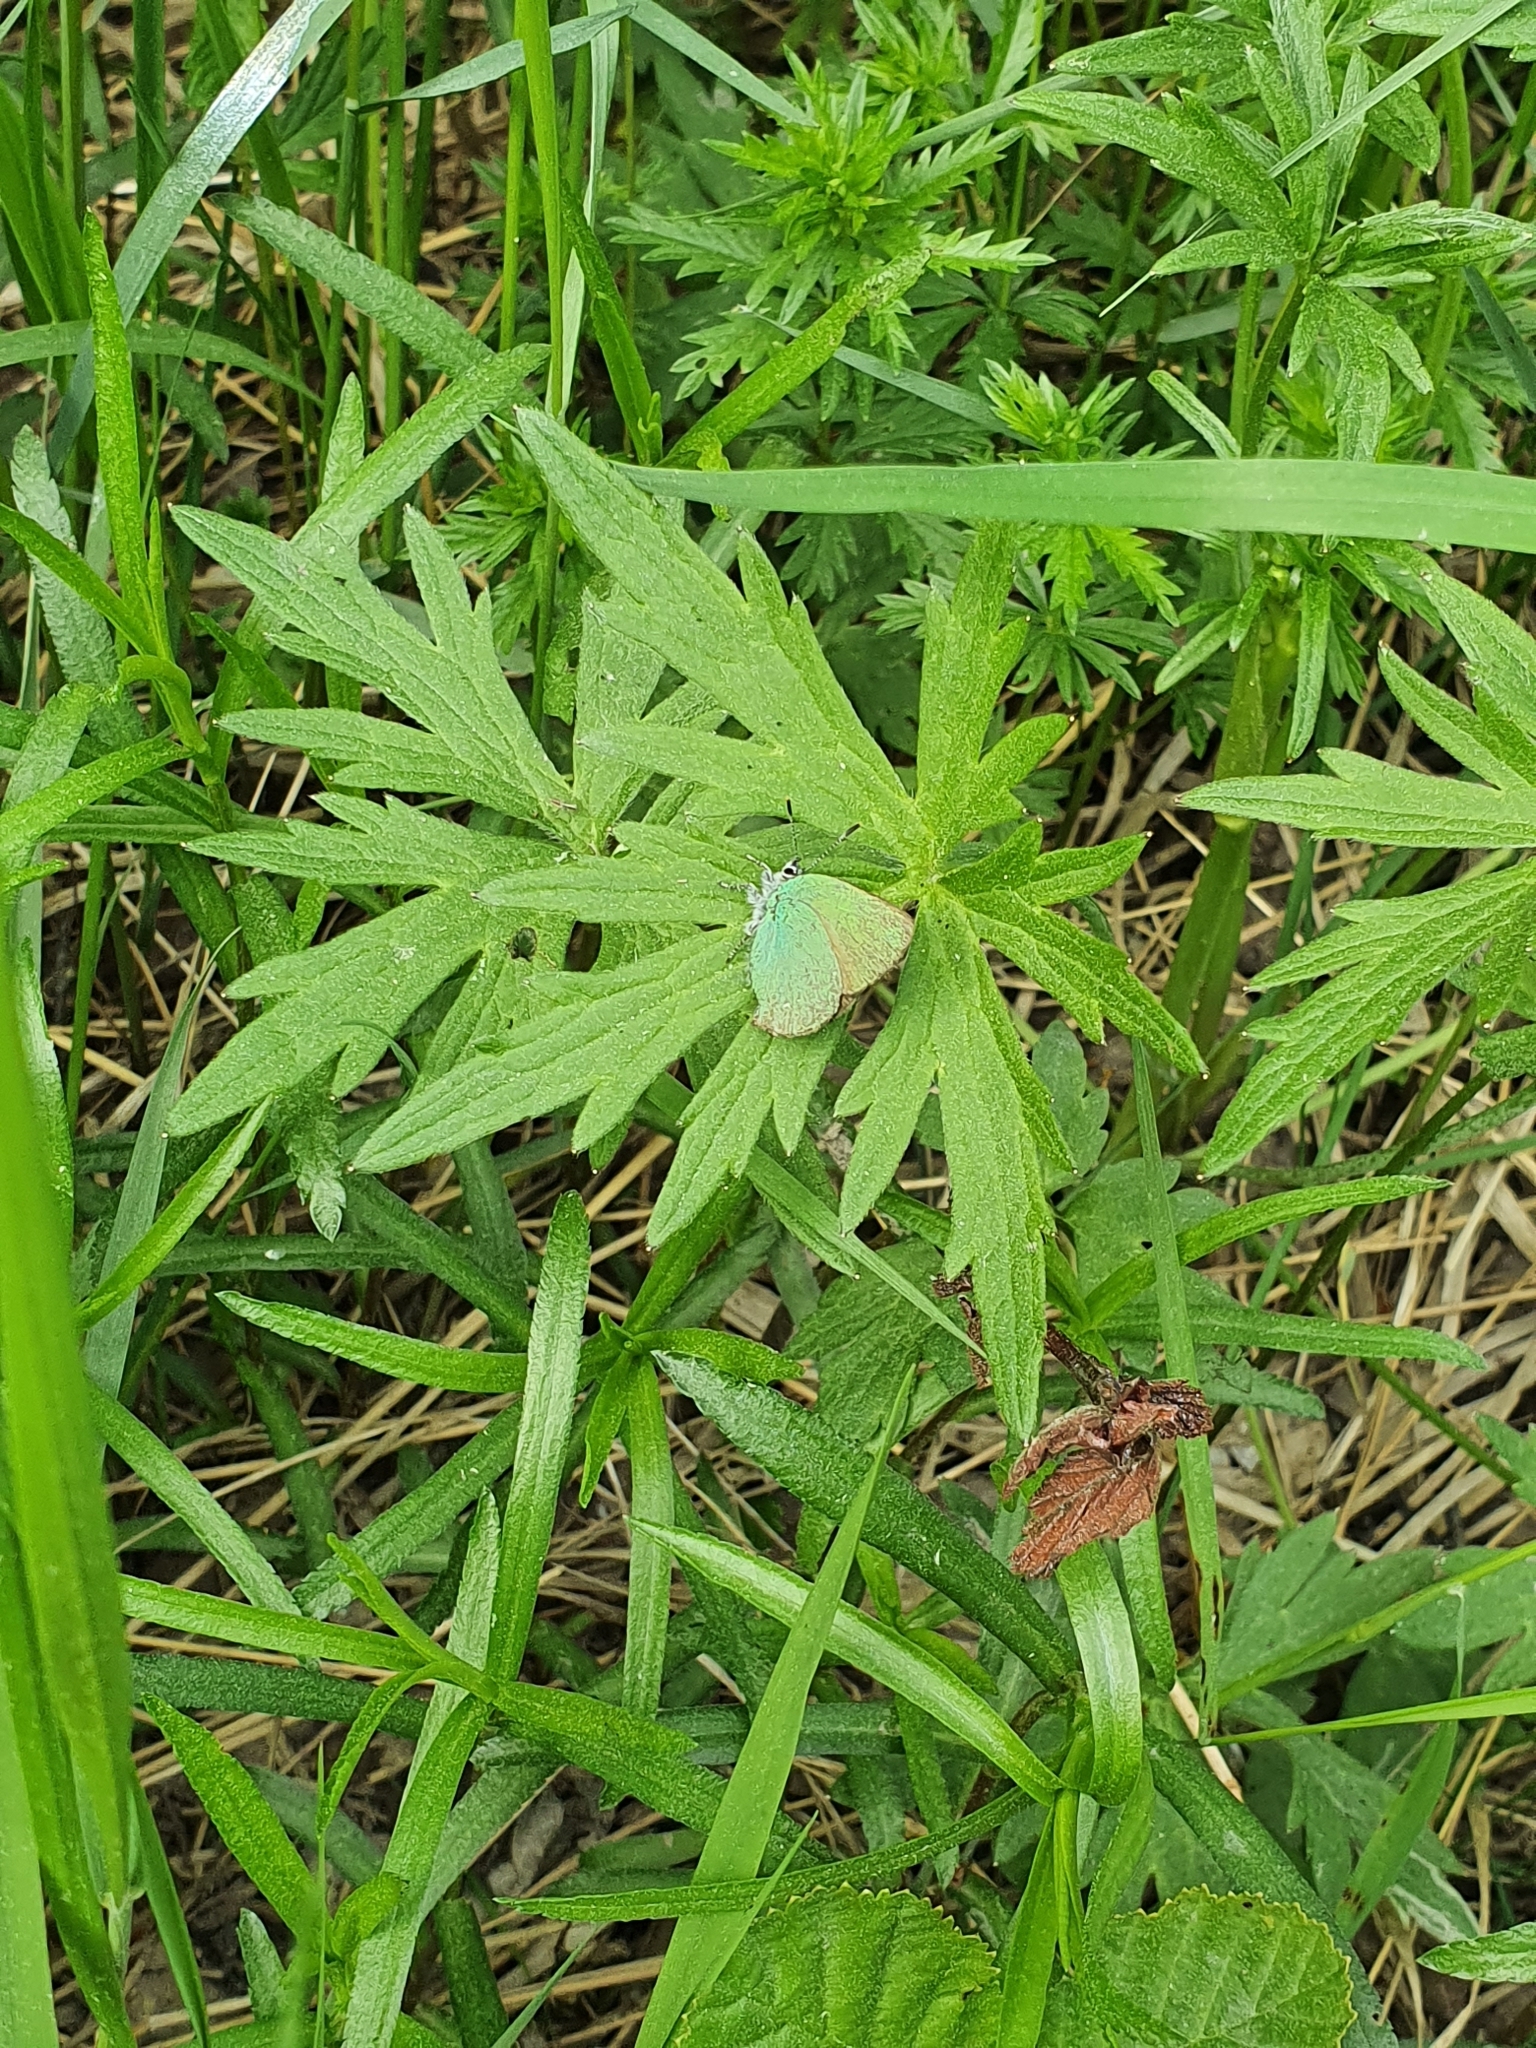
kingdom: Animalia
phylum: Arthropoda
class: Insecta
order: Lepidoptera
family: Lycaenidae
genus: Callophrys
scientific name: Callophrys rubi
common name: Green hairstreak
